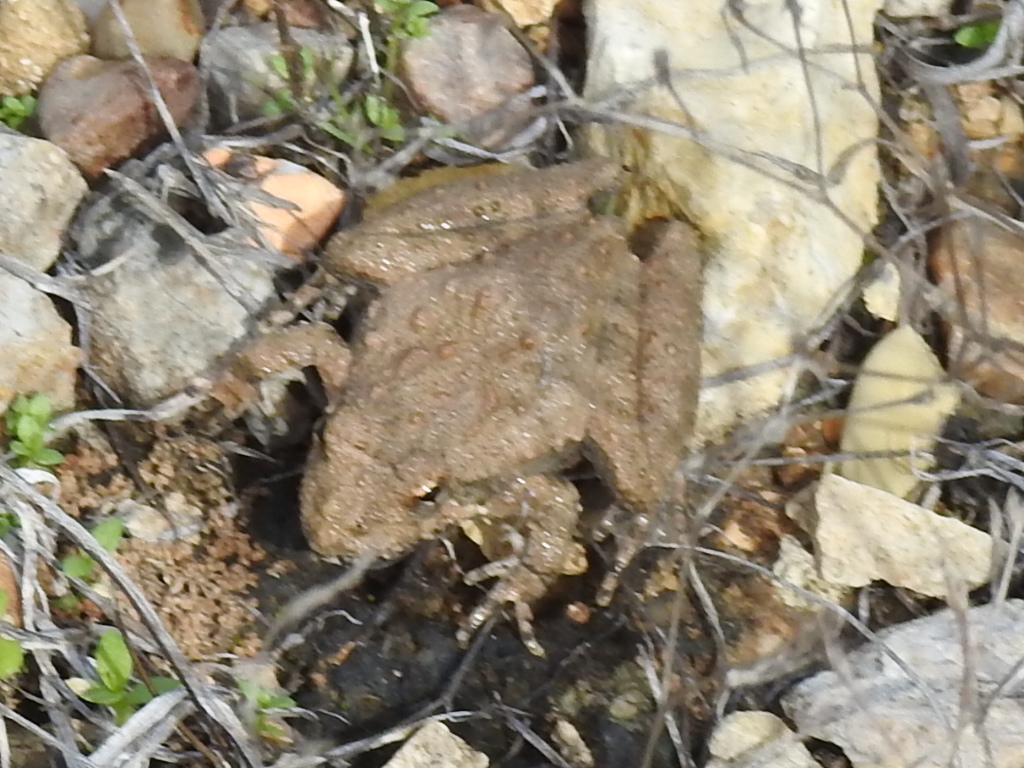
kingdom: Animalia
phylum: Chordata
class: Amphibia
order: Anura
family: Hylidae
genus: Acris
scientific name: Acris blanchardi
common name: Blanchard's cricket frog
